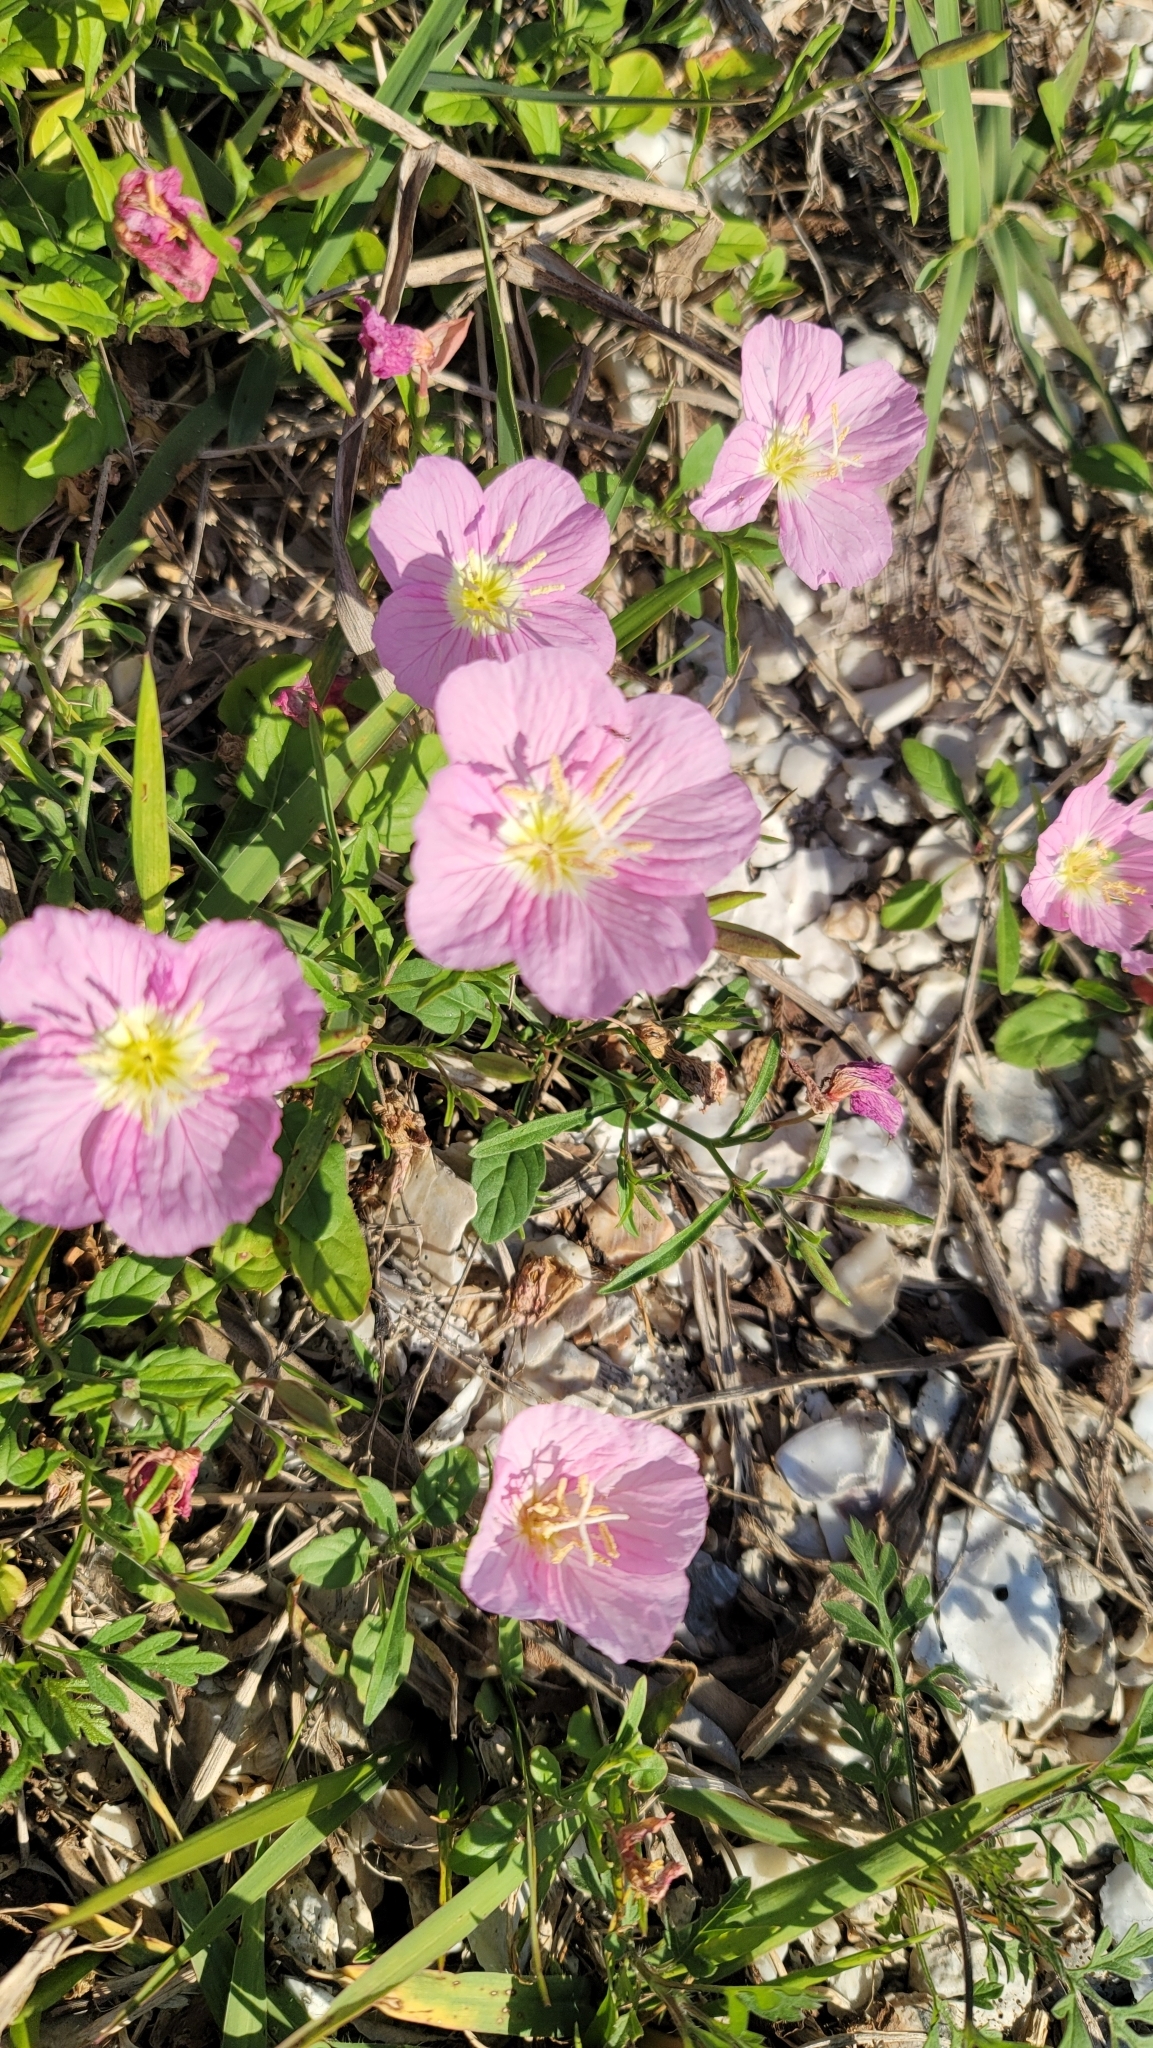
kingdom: Plantae
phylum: Tracheophyta
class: Magnoliopsida
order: Myrtales
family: Onagraceae
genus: Oenothera
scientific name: Oenothera speciosa
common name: White evening-primrose
